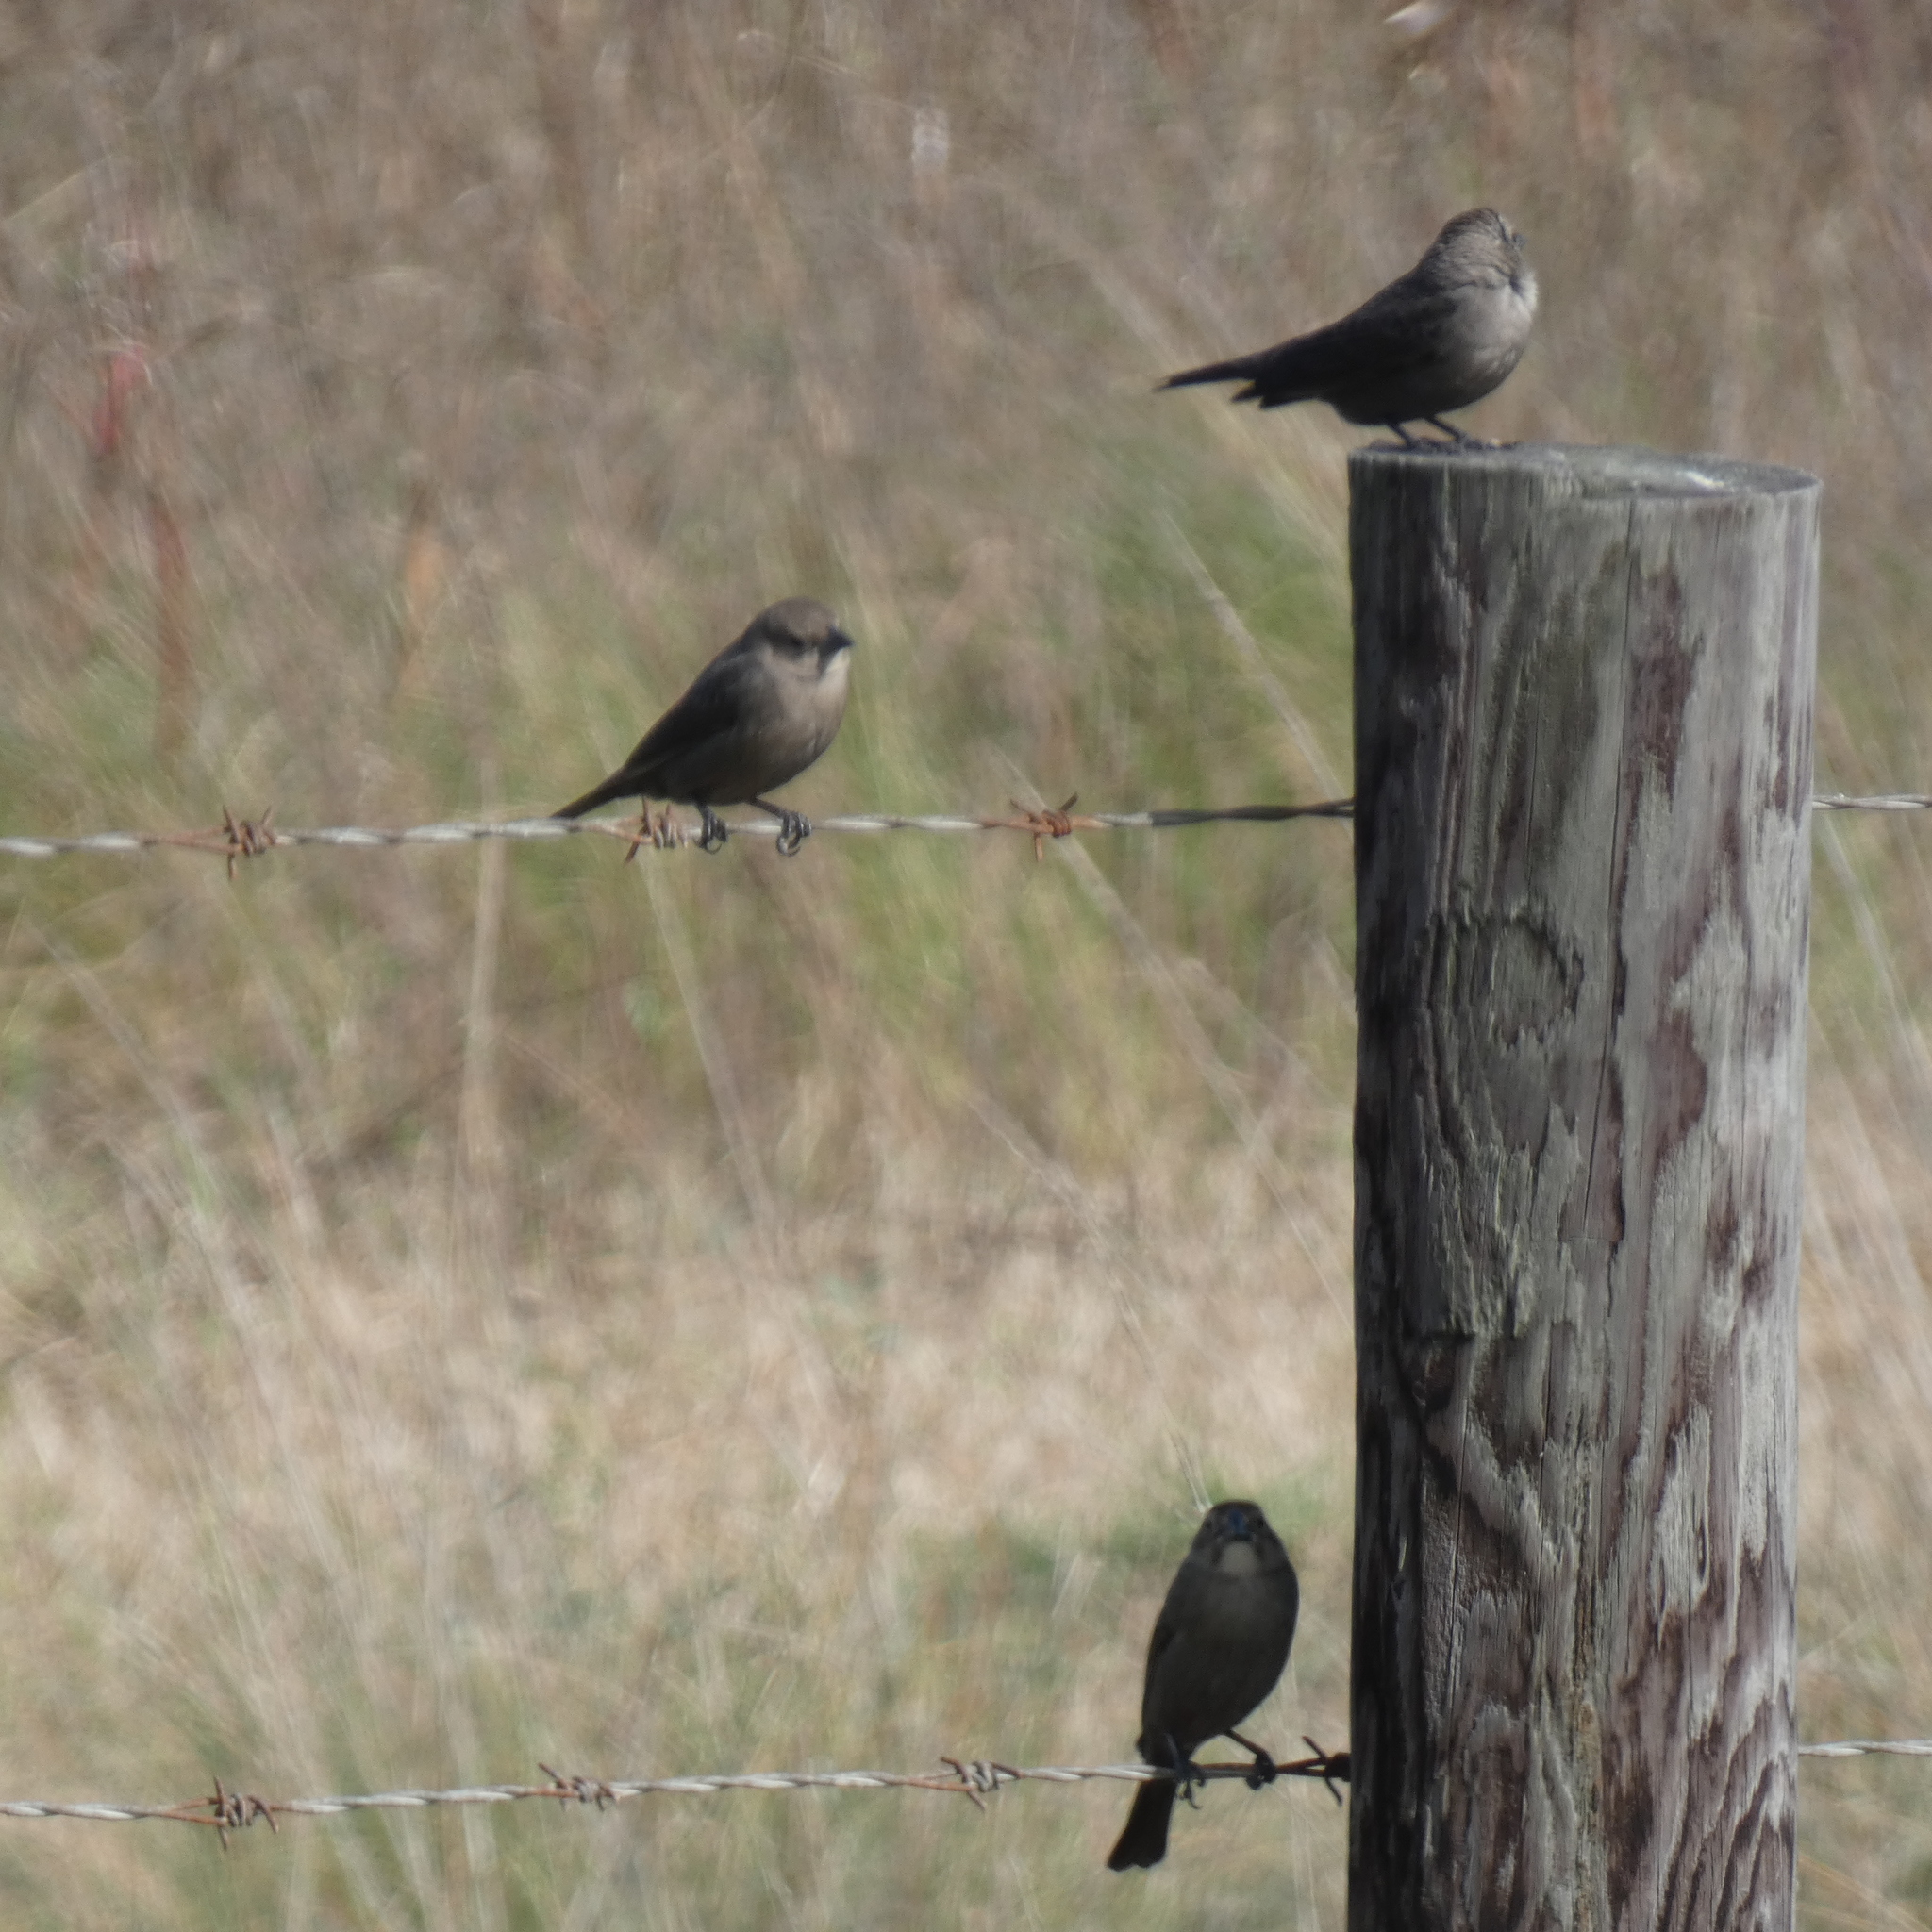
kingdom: Animalia
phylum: Chordata
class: Aves
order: Passeriformes
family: Icteridae
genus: Molothrus
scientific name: Molothrus ater
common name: Brown-headed cowbird
